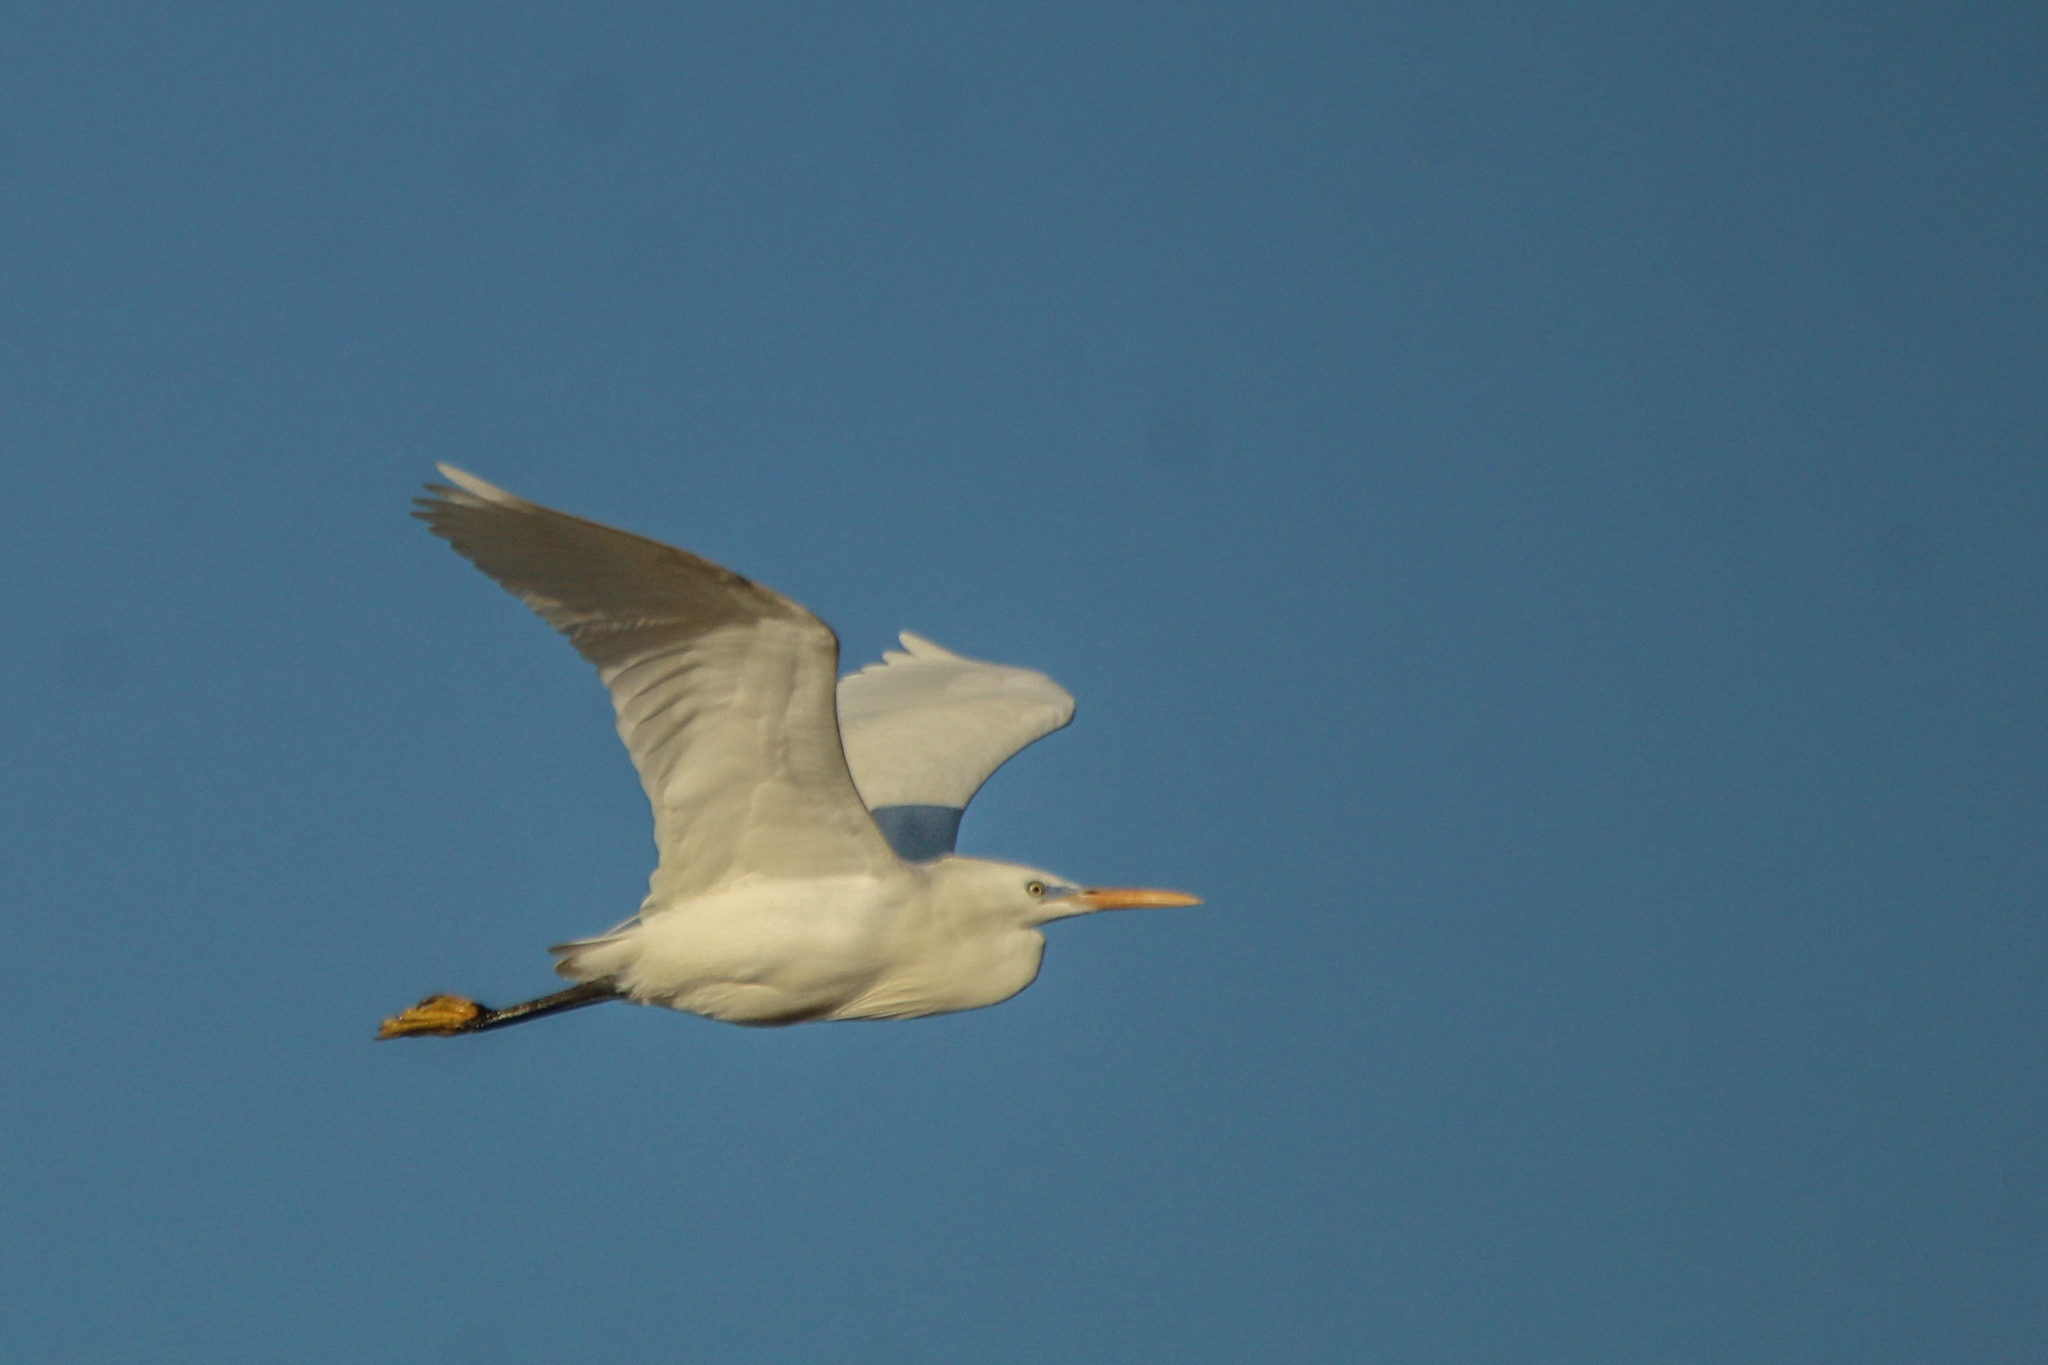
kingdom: Animalia
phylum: Chordata
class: Aves
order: Pelecaniformes
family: Ardeidae
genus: Egretta
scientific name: Egretta eulophotes
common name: Chinese egret
